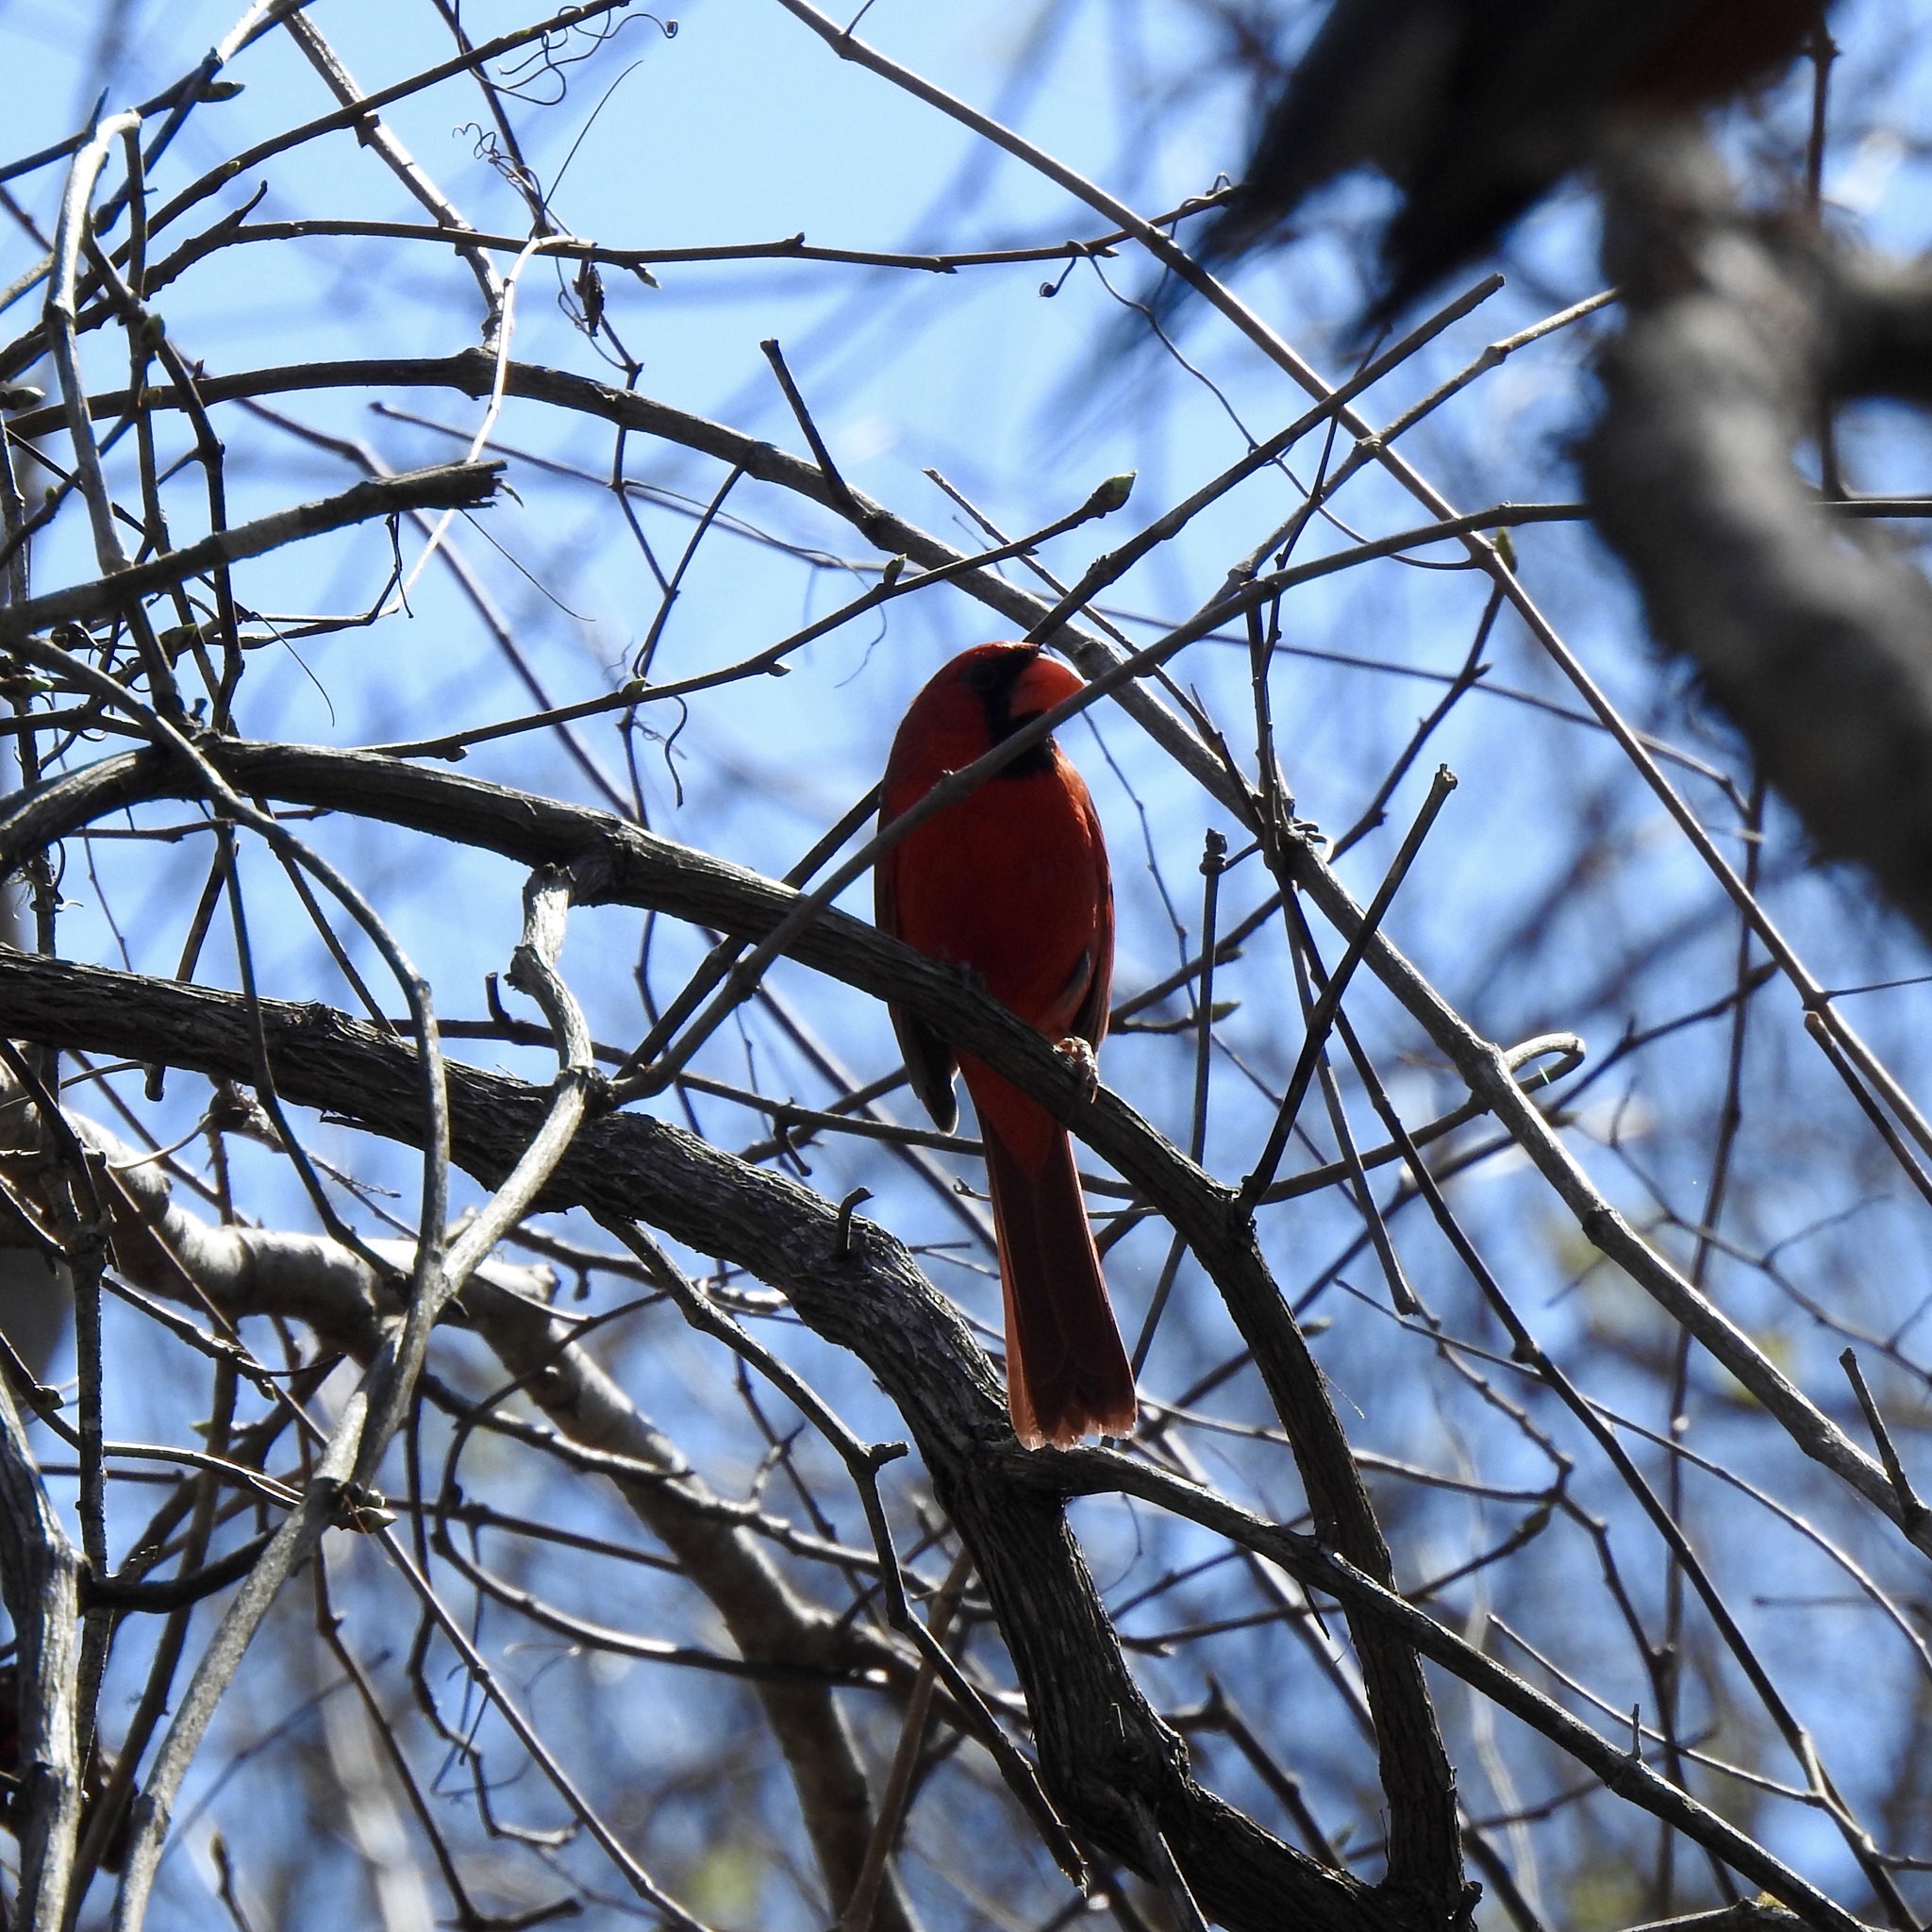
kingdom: Animalia
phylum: Chordata
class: Aves
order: Passeriformes
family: Cardinalidae
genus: Cardinalis
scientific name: Cardinalis cardinalis
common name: Northern cardinal
